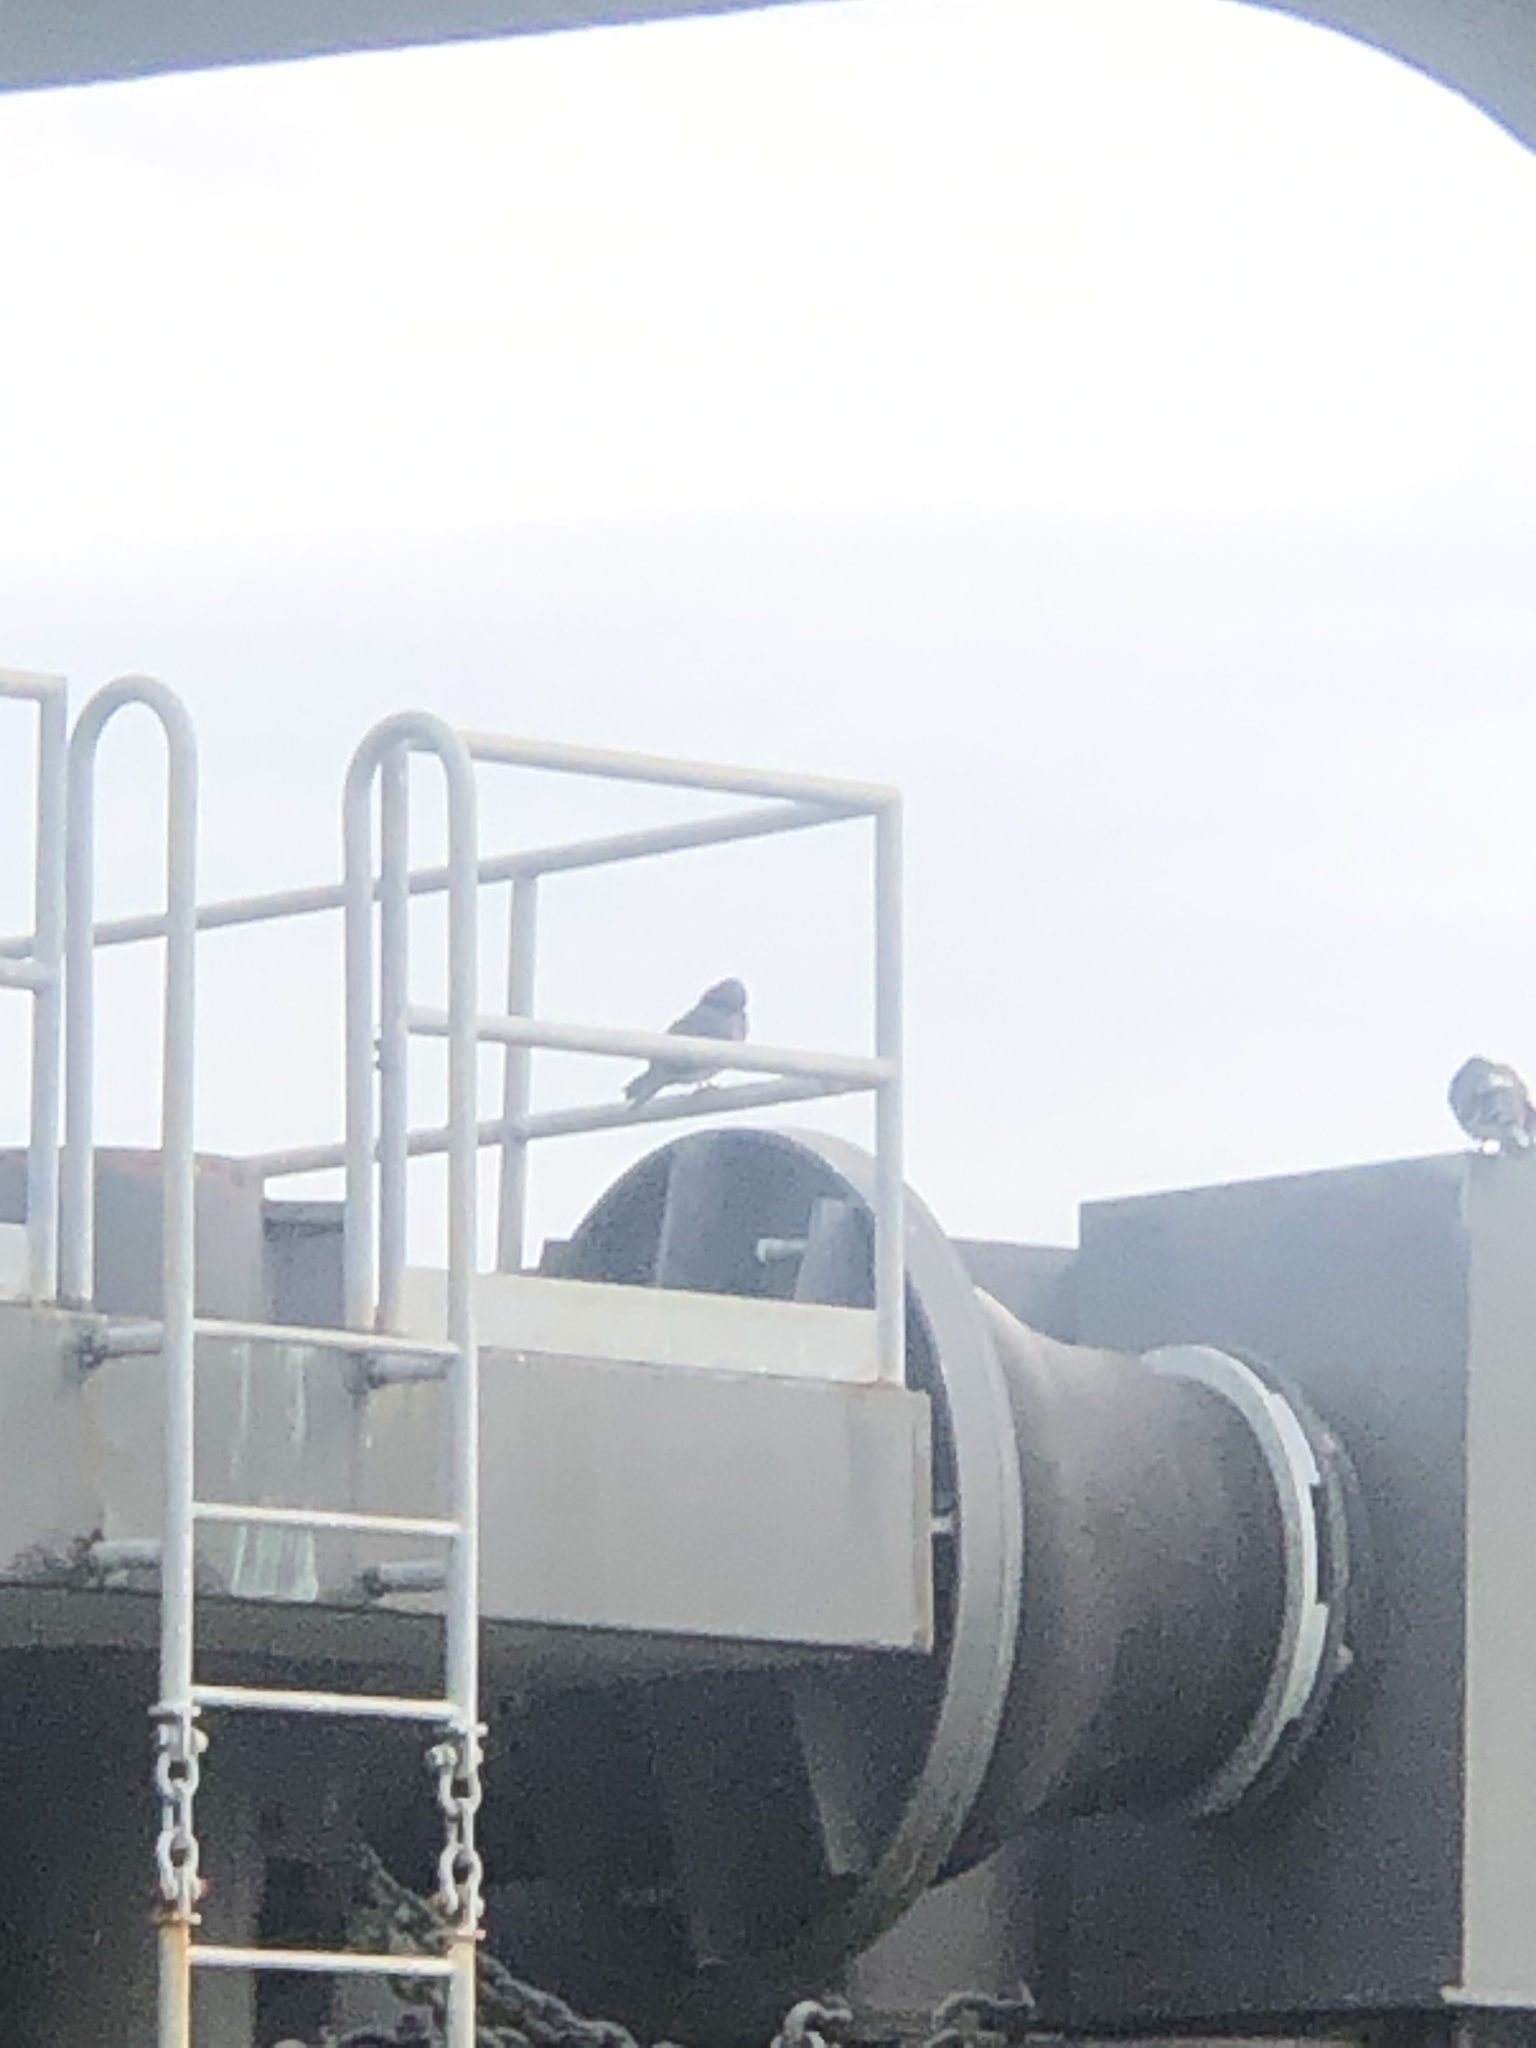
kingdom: Animalia
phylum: Chordata
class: Aves
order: Columbiformes
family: Columbidae
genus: Columba
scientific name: Columba livia
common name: Rock pigeon
